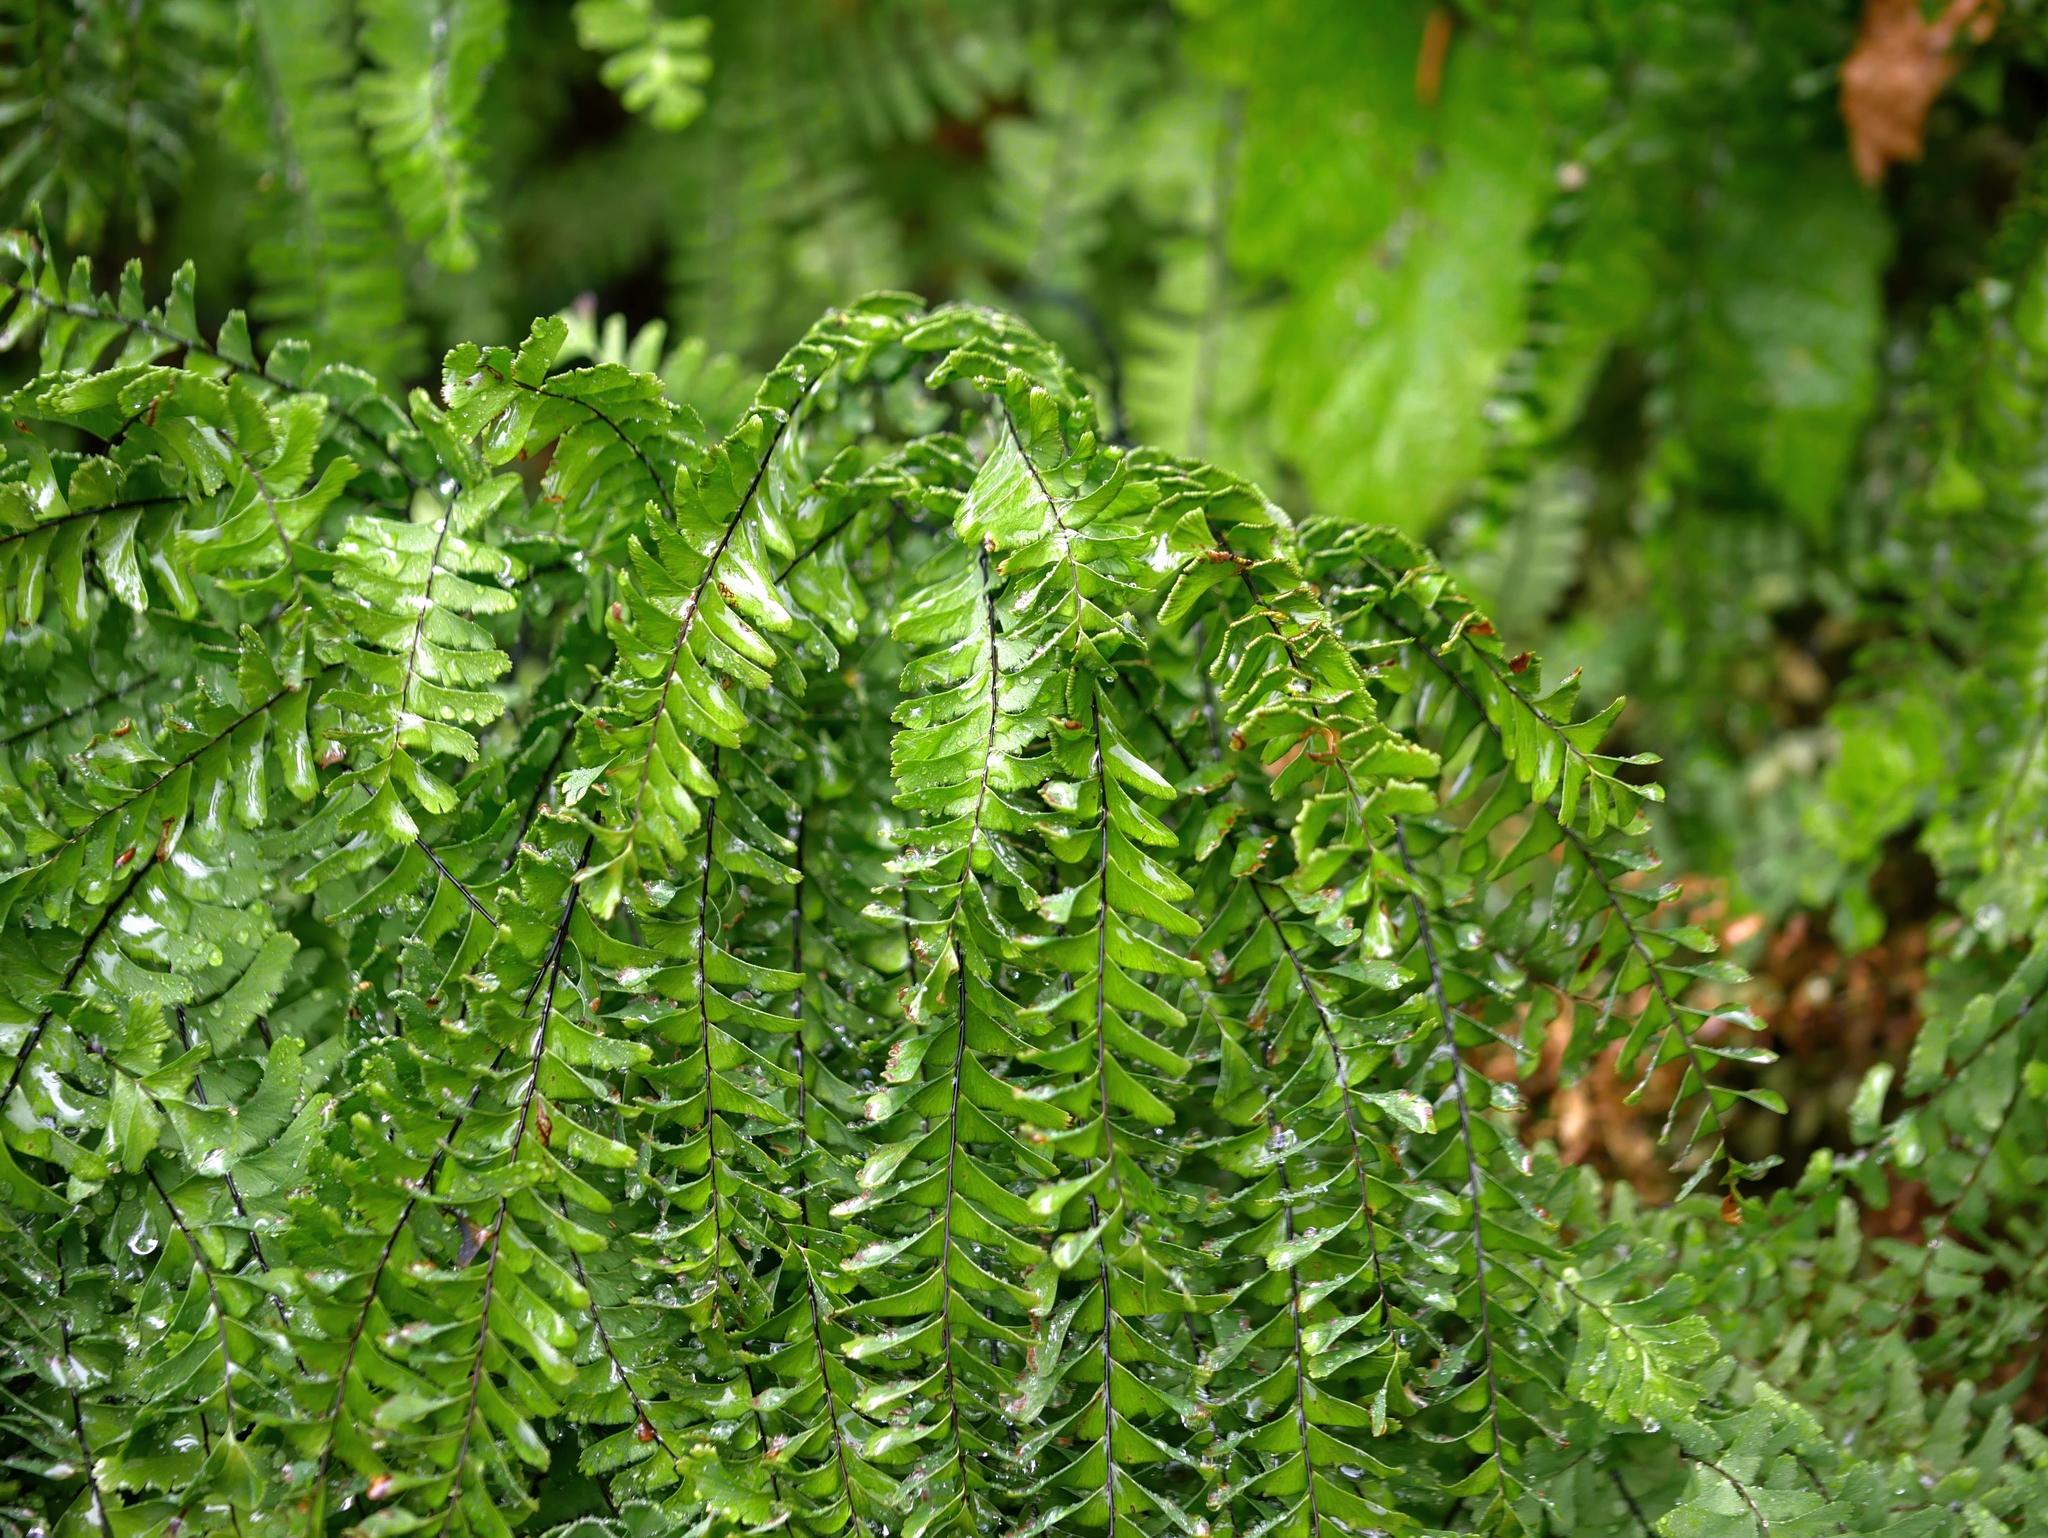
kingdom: Plantae
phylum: Tracheophyta
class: Polypodiopsida
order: Polypodiales
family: Pteridaceae
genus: Adiantum
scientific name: Adiantum aleuticum
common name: Aleutian maidenhair fern
